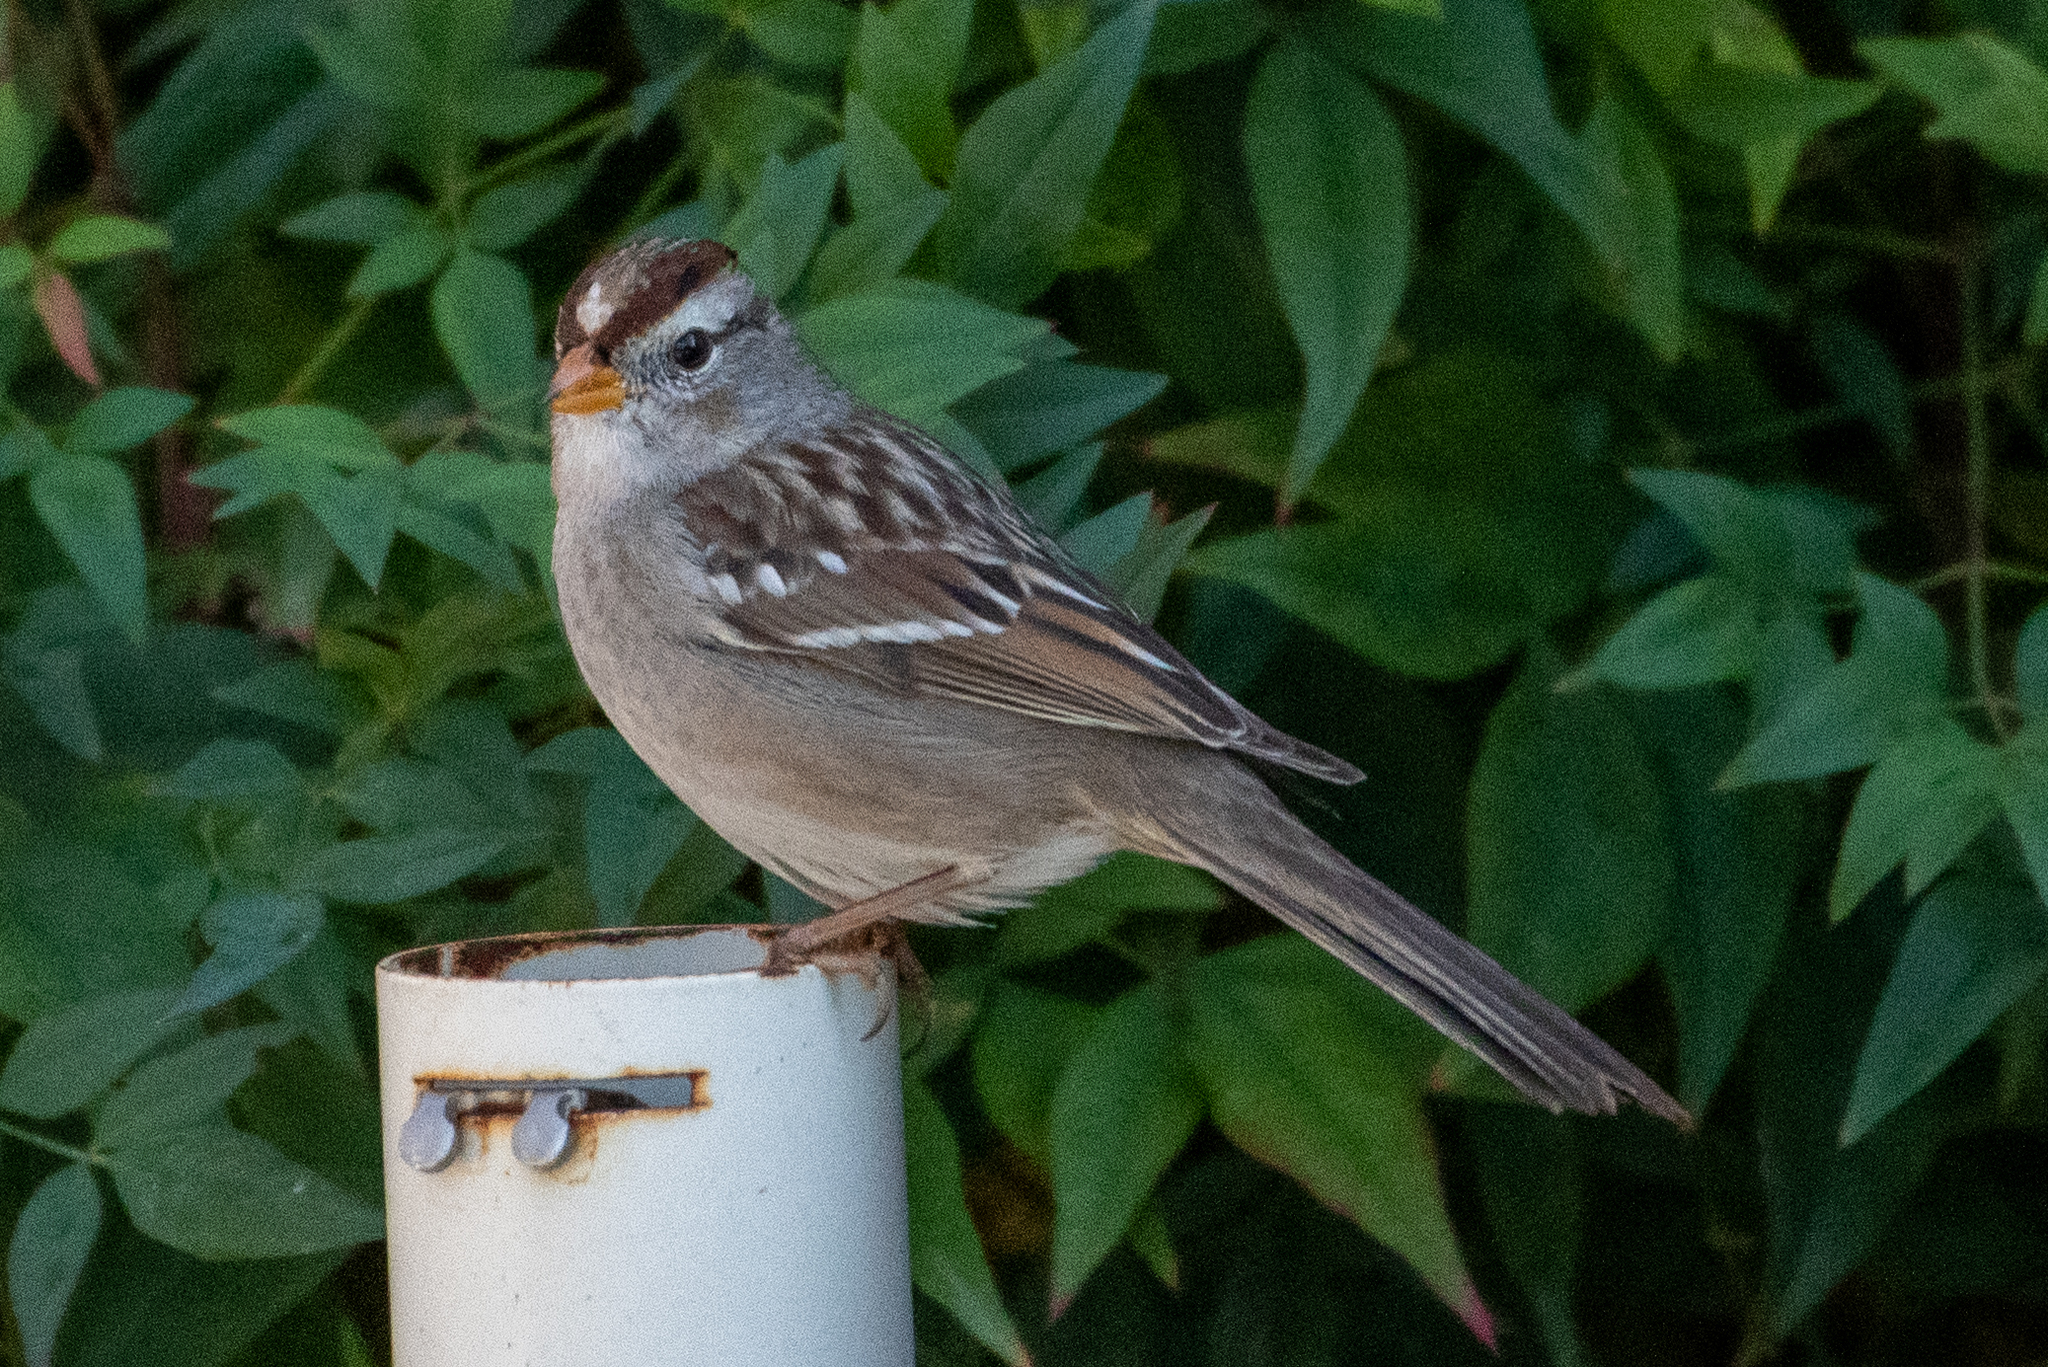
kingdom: Animalia
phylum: Chordata
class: Aves
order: Passeriformes
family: Passerellidae
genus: Zonotrichia
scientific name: Zonotrichia leucophrys
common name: White-crowned sparrow
